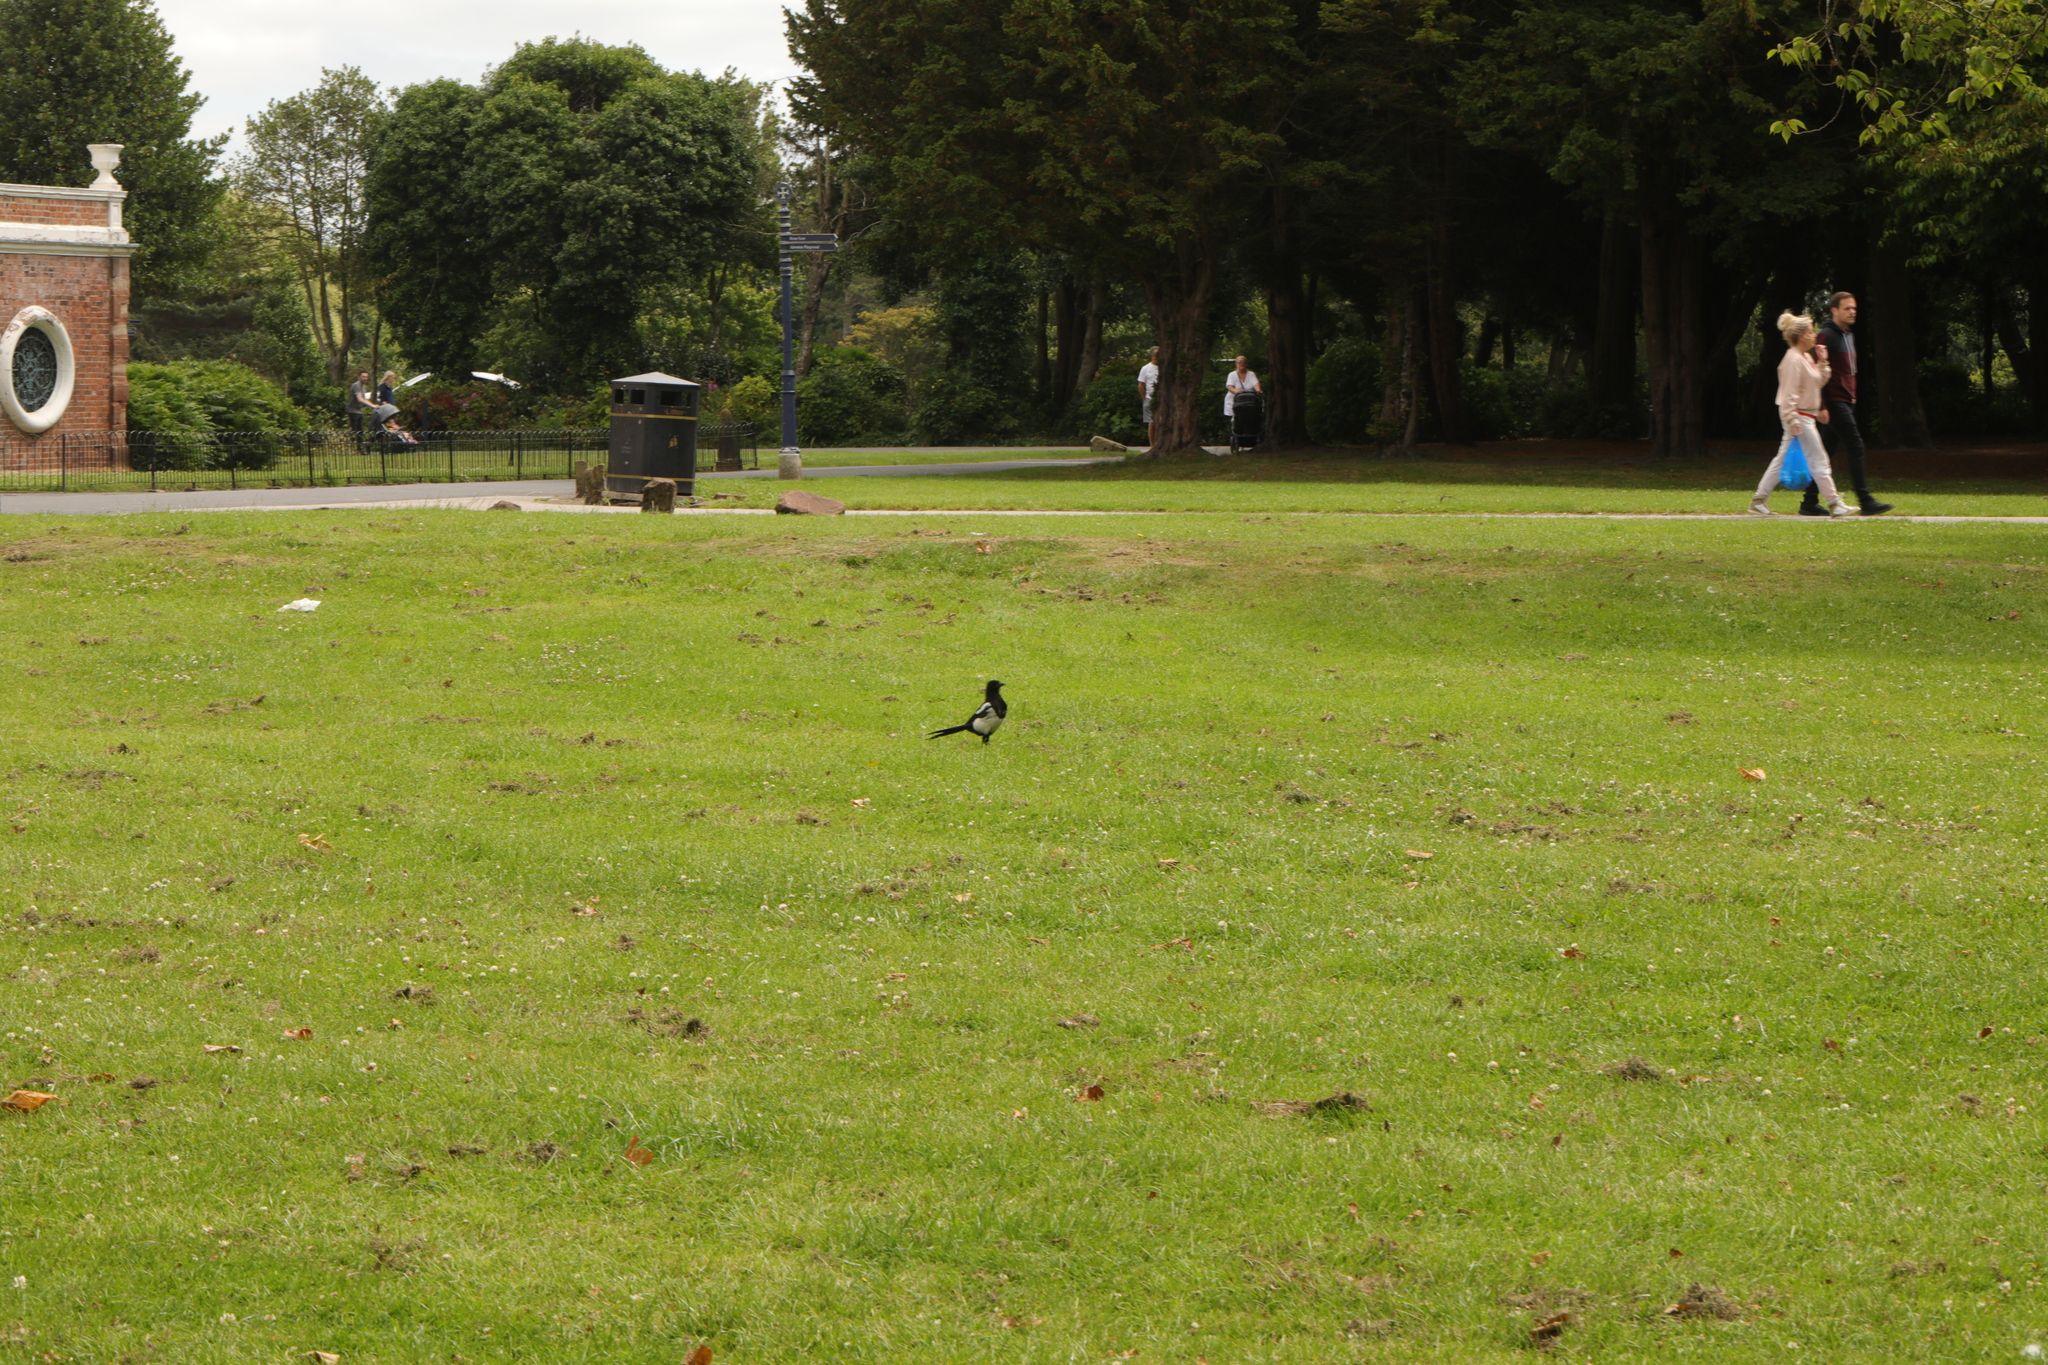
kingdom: Animalia
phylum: Chordata
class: Aves
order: Passeriformes
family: Corvidae
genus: Pica
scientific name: Pica pica
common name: Eurasian magpie
